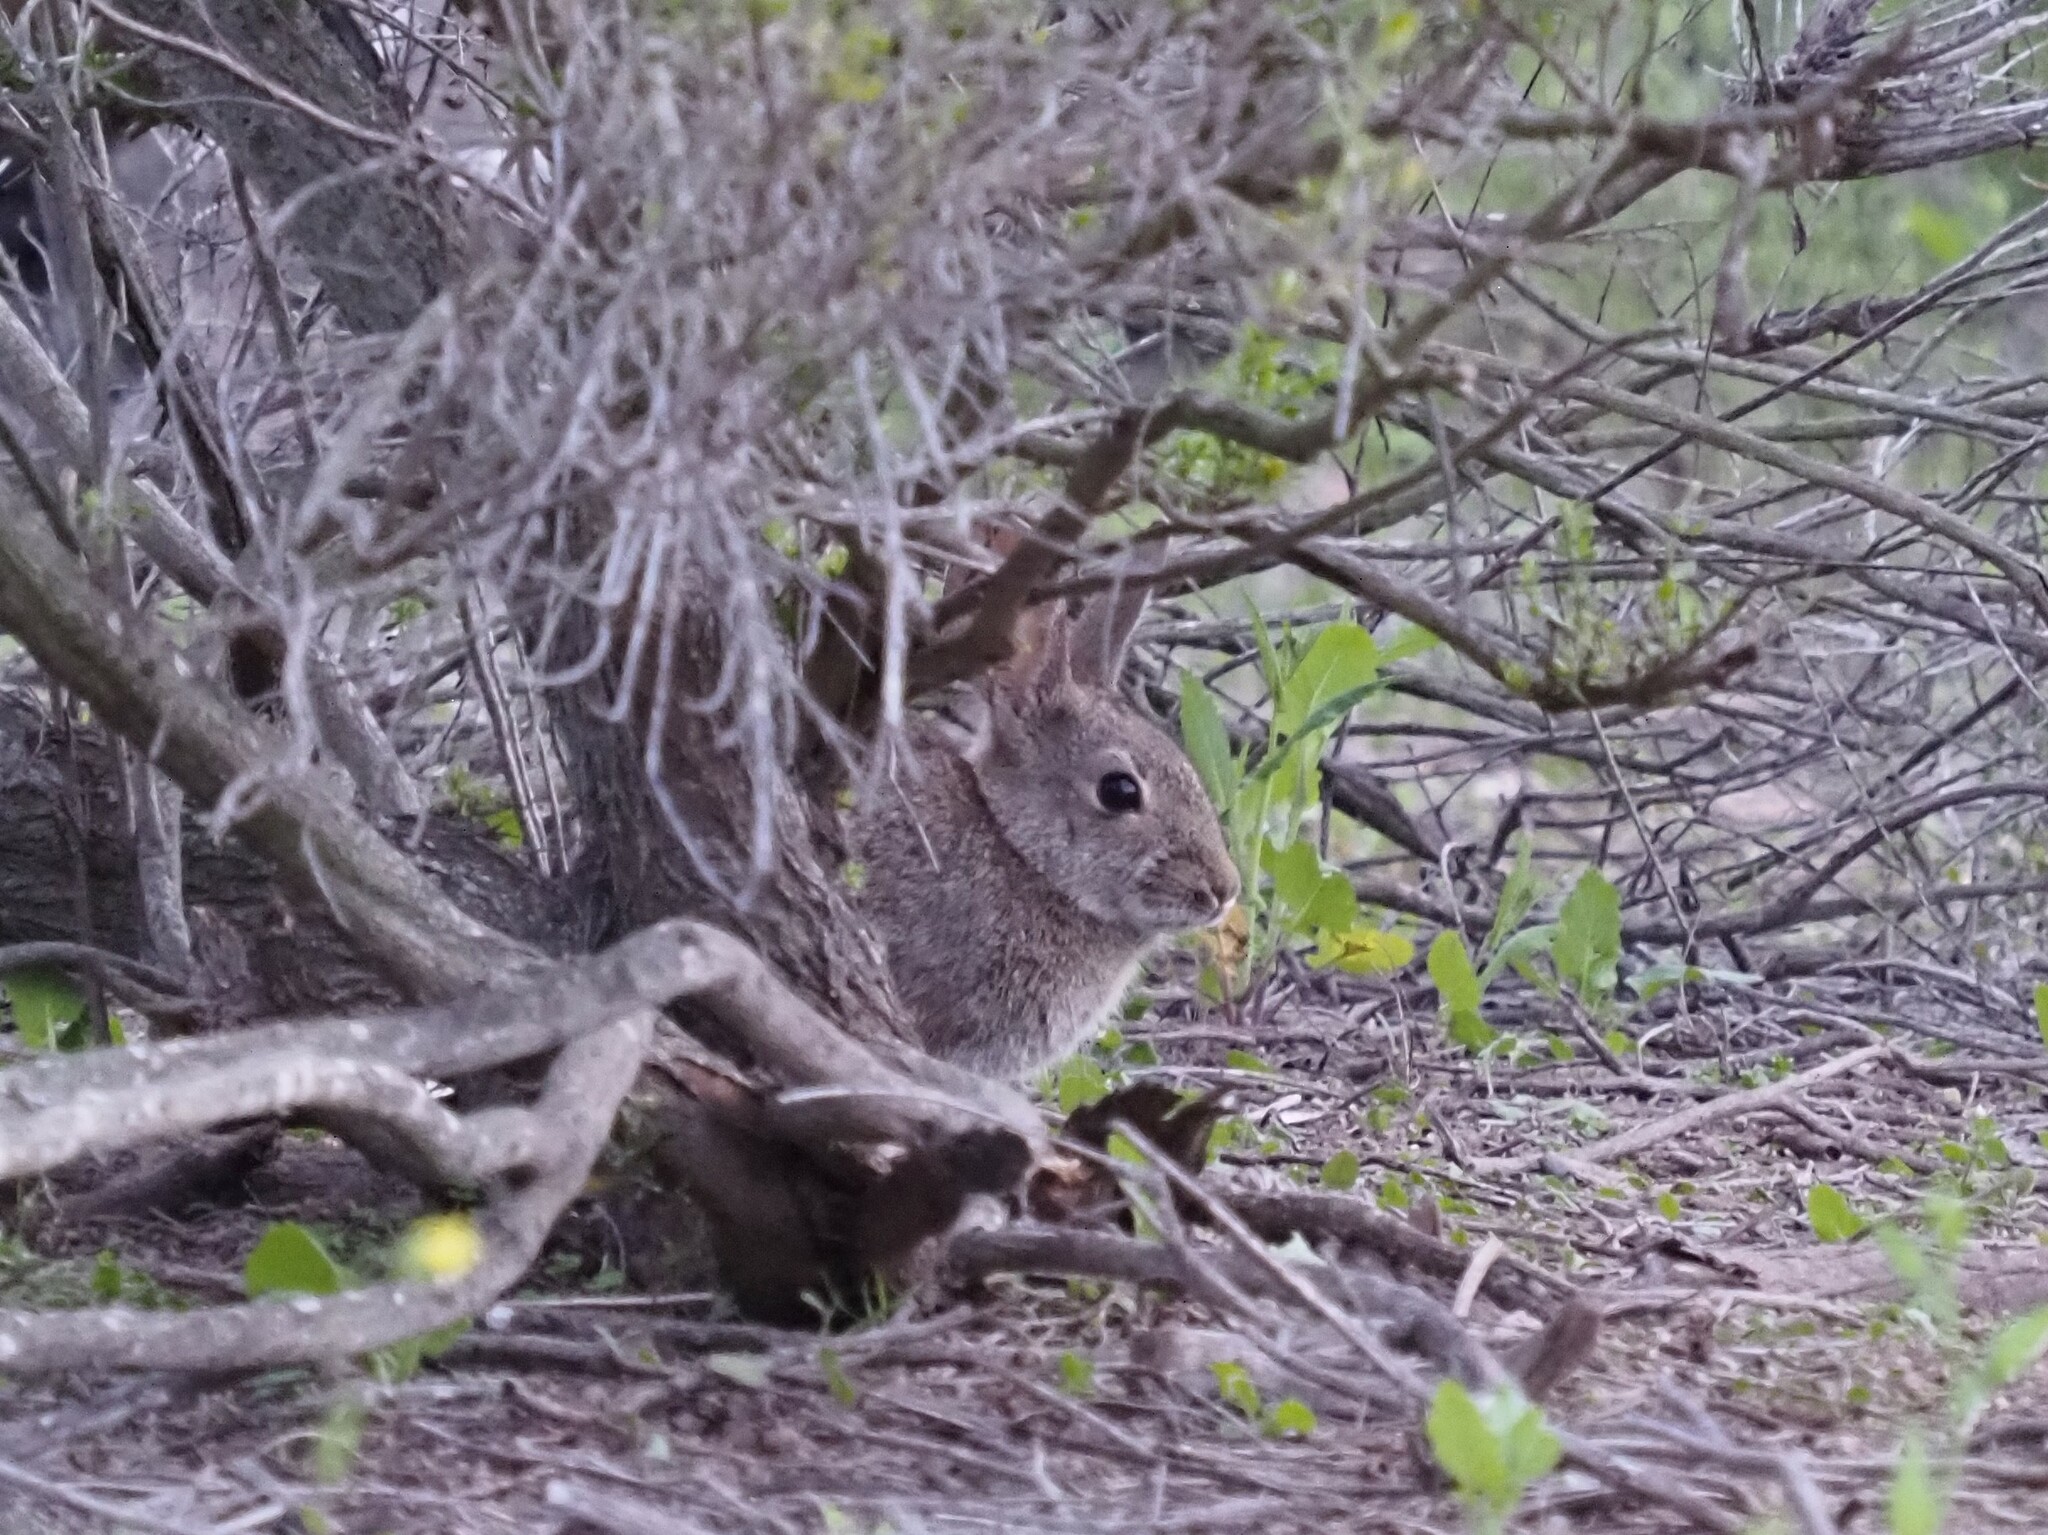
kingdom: Animalia
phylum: Chordata
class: Mammalia
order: Lagomorpha
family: Leporidae
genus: Sylvilagus
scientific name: Sylvilagus bachmani
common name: Brush rabbit
